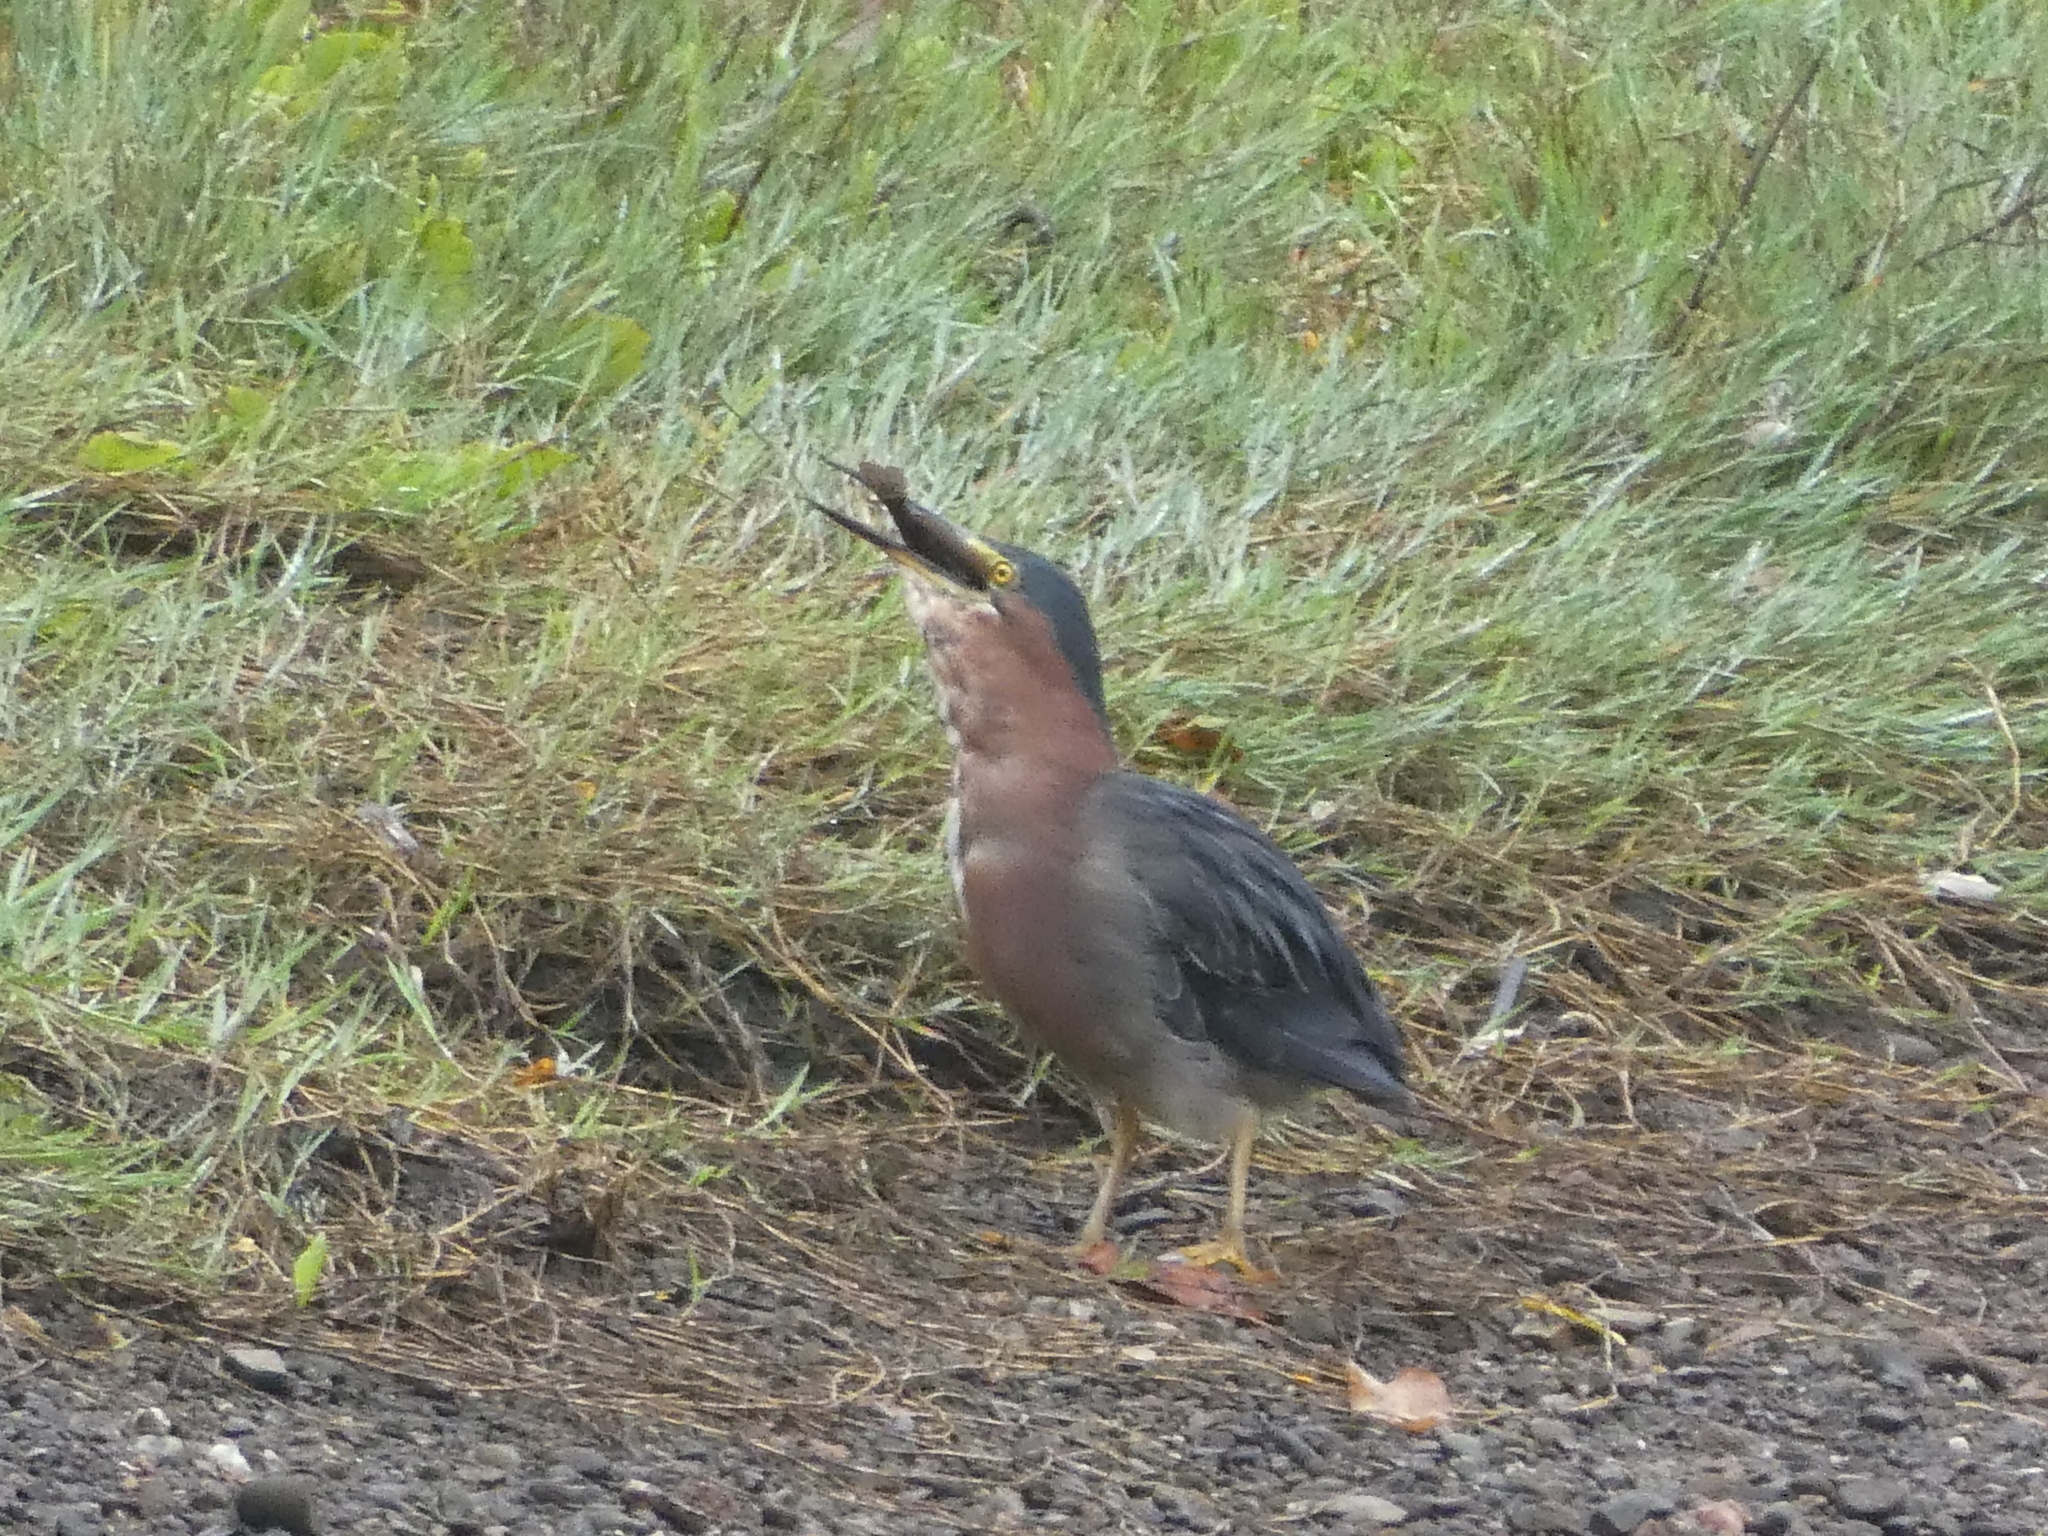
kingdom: Animalia
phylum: Chordata
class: Aves
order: Pelecaniformes
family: Ardeidae
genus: Butorides
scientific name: Butorides virescens
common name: Green heron
